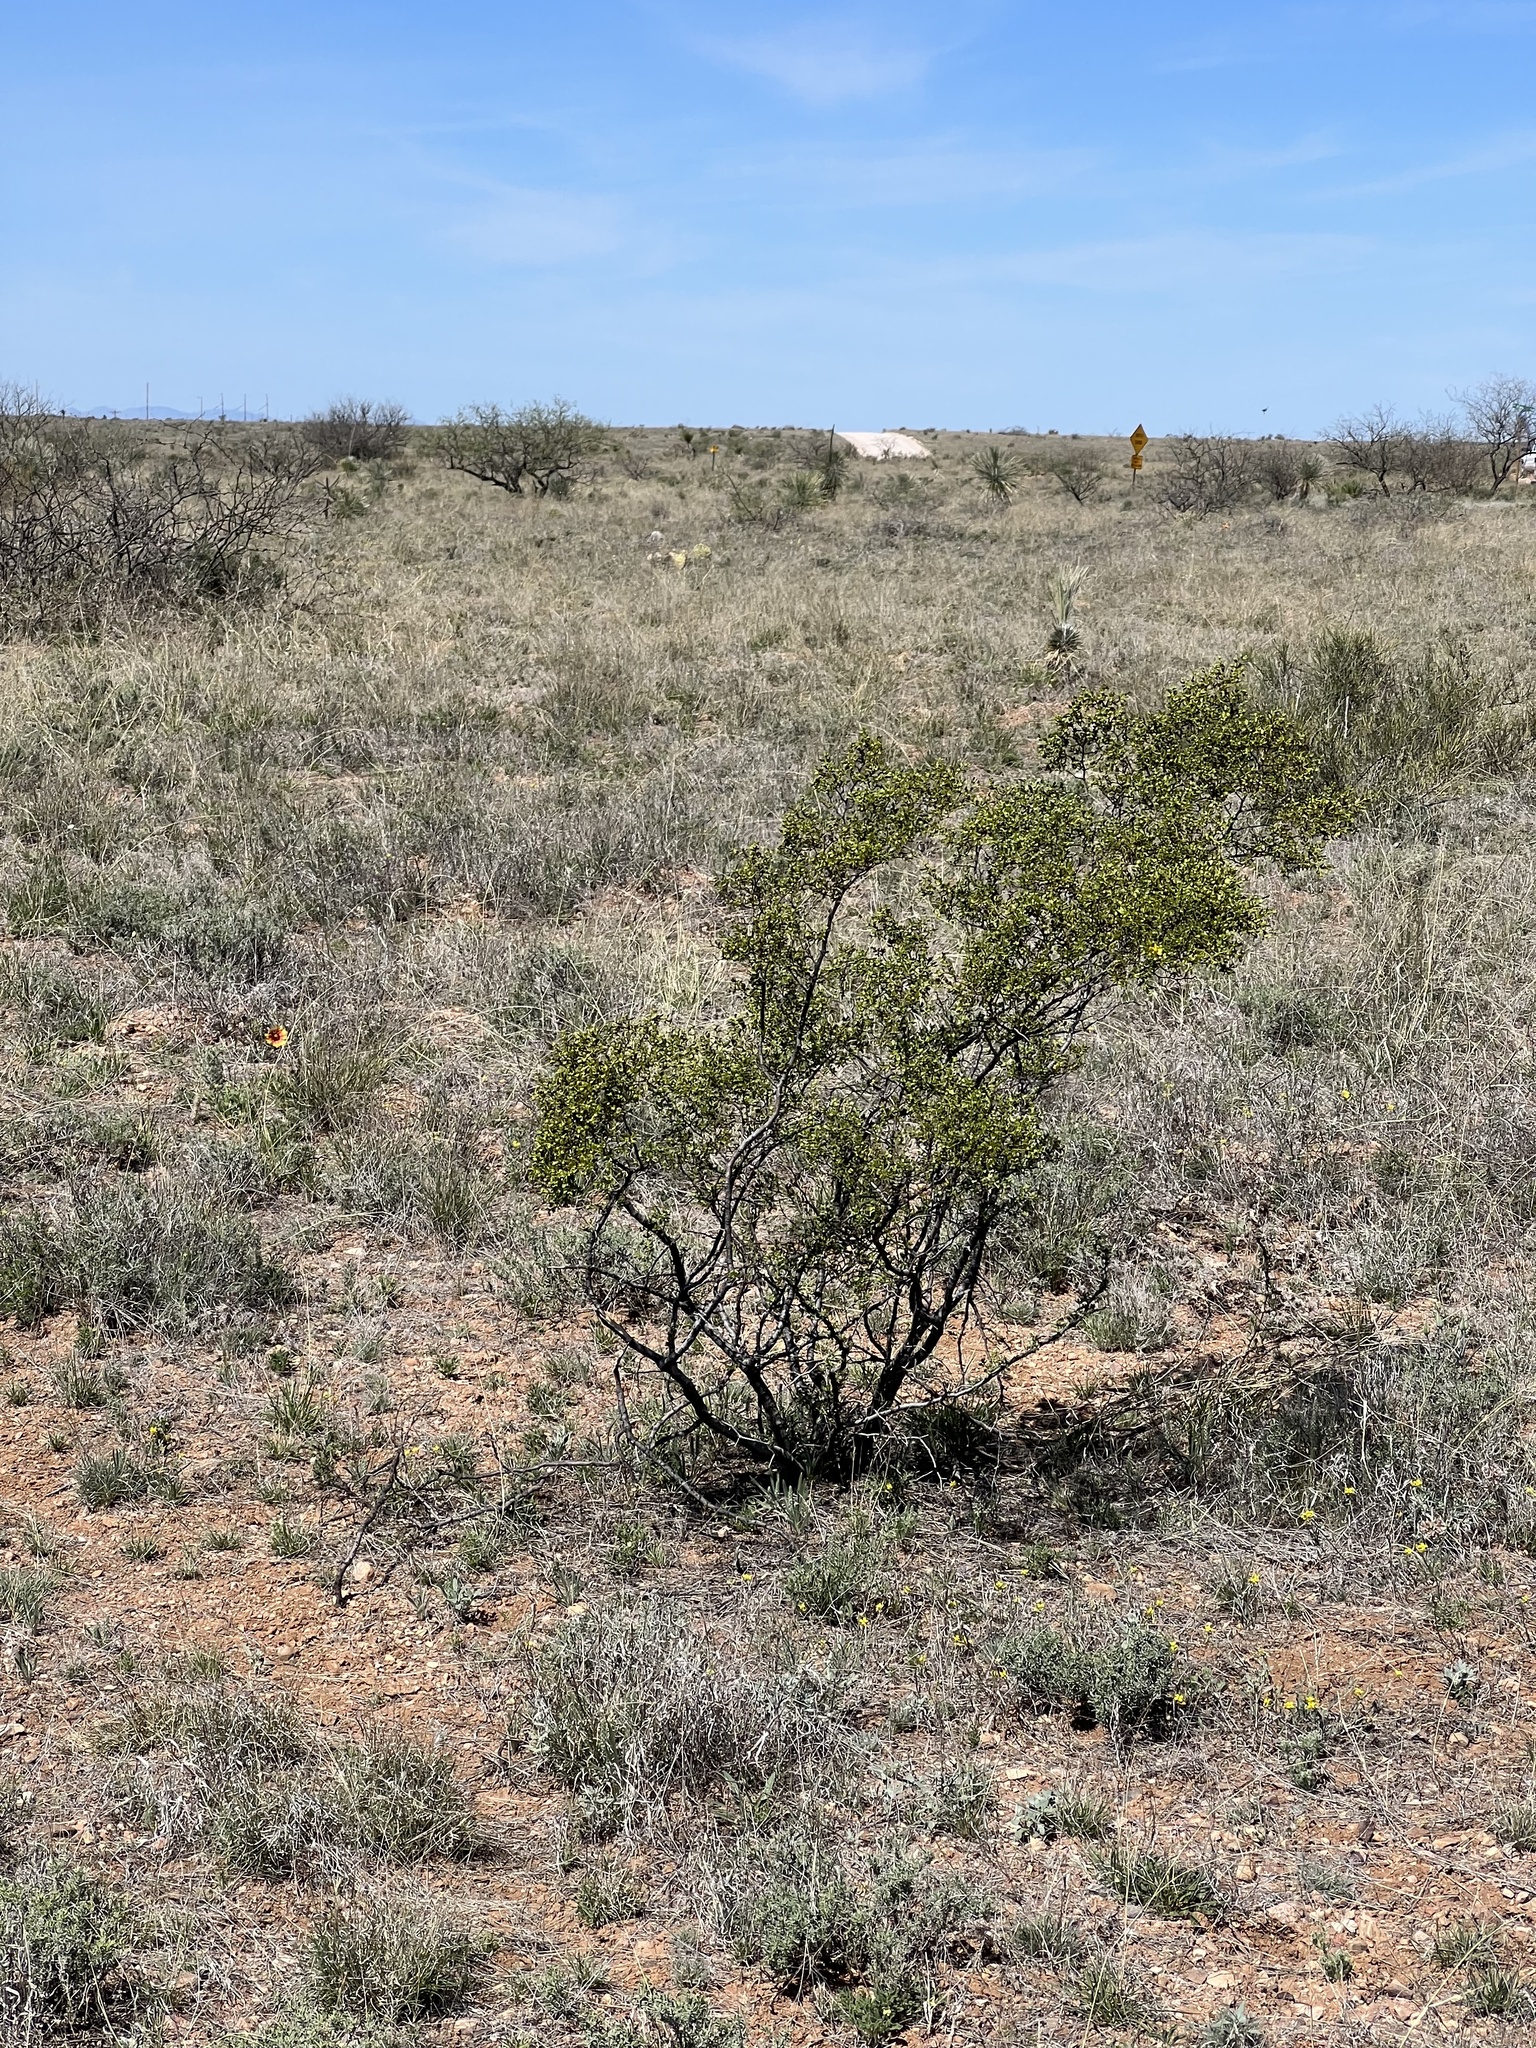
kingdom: Plantae
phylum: Tracheophyta
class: Magnoliopsida
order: Zygophyllales
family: Zygophyllaceae
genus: Larrea
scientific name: Larrea tridentata
